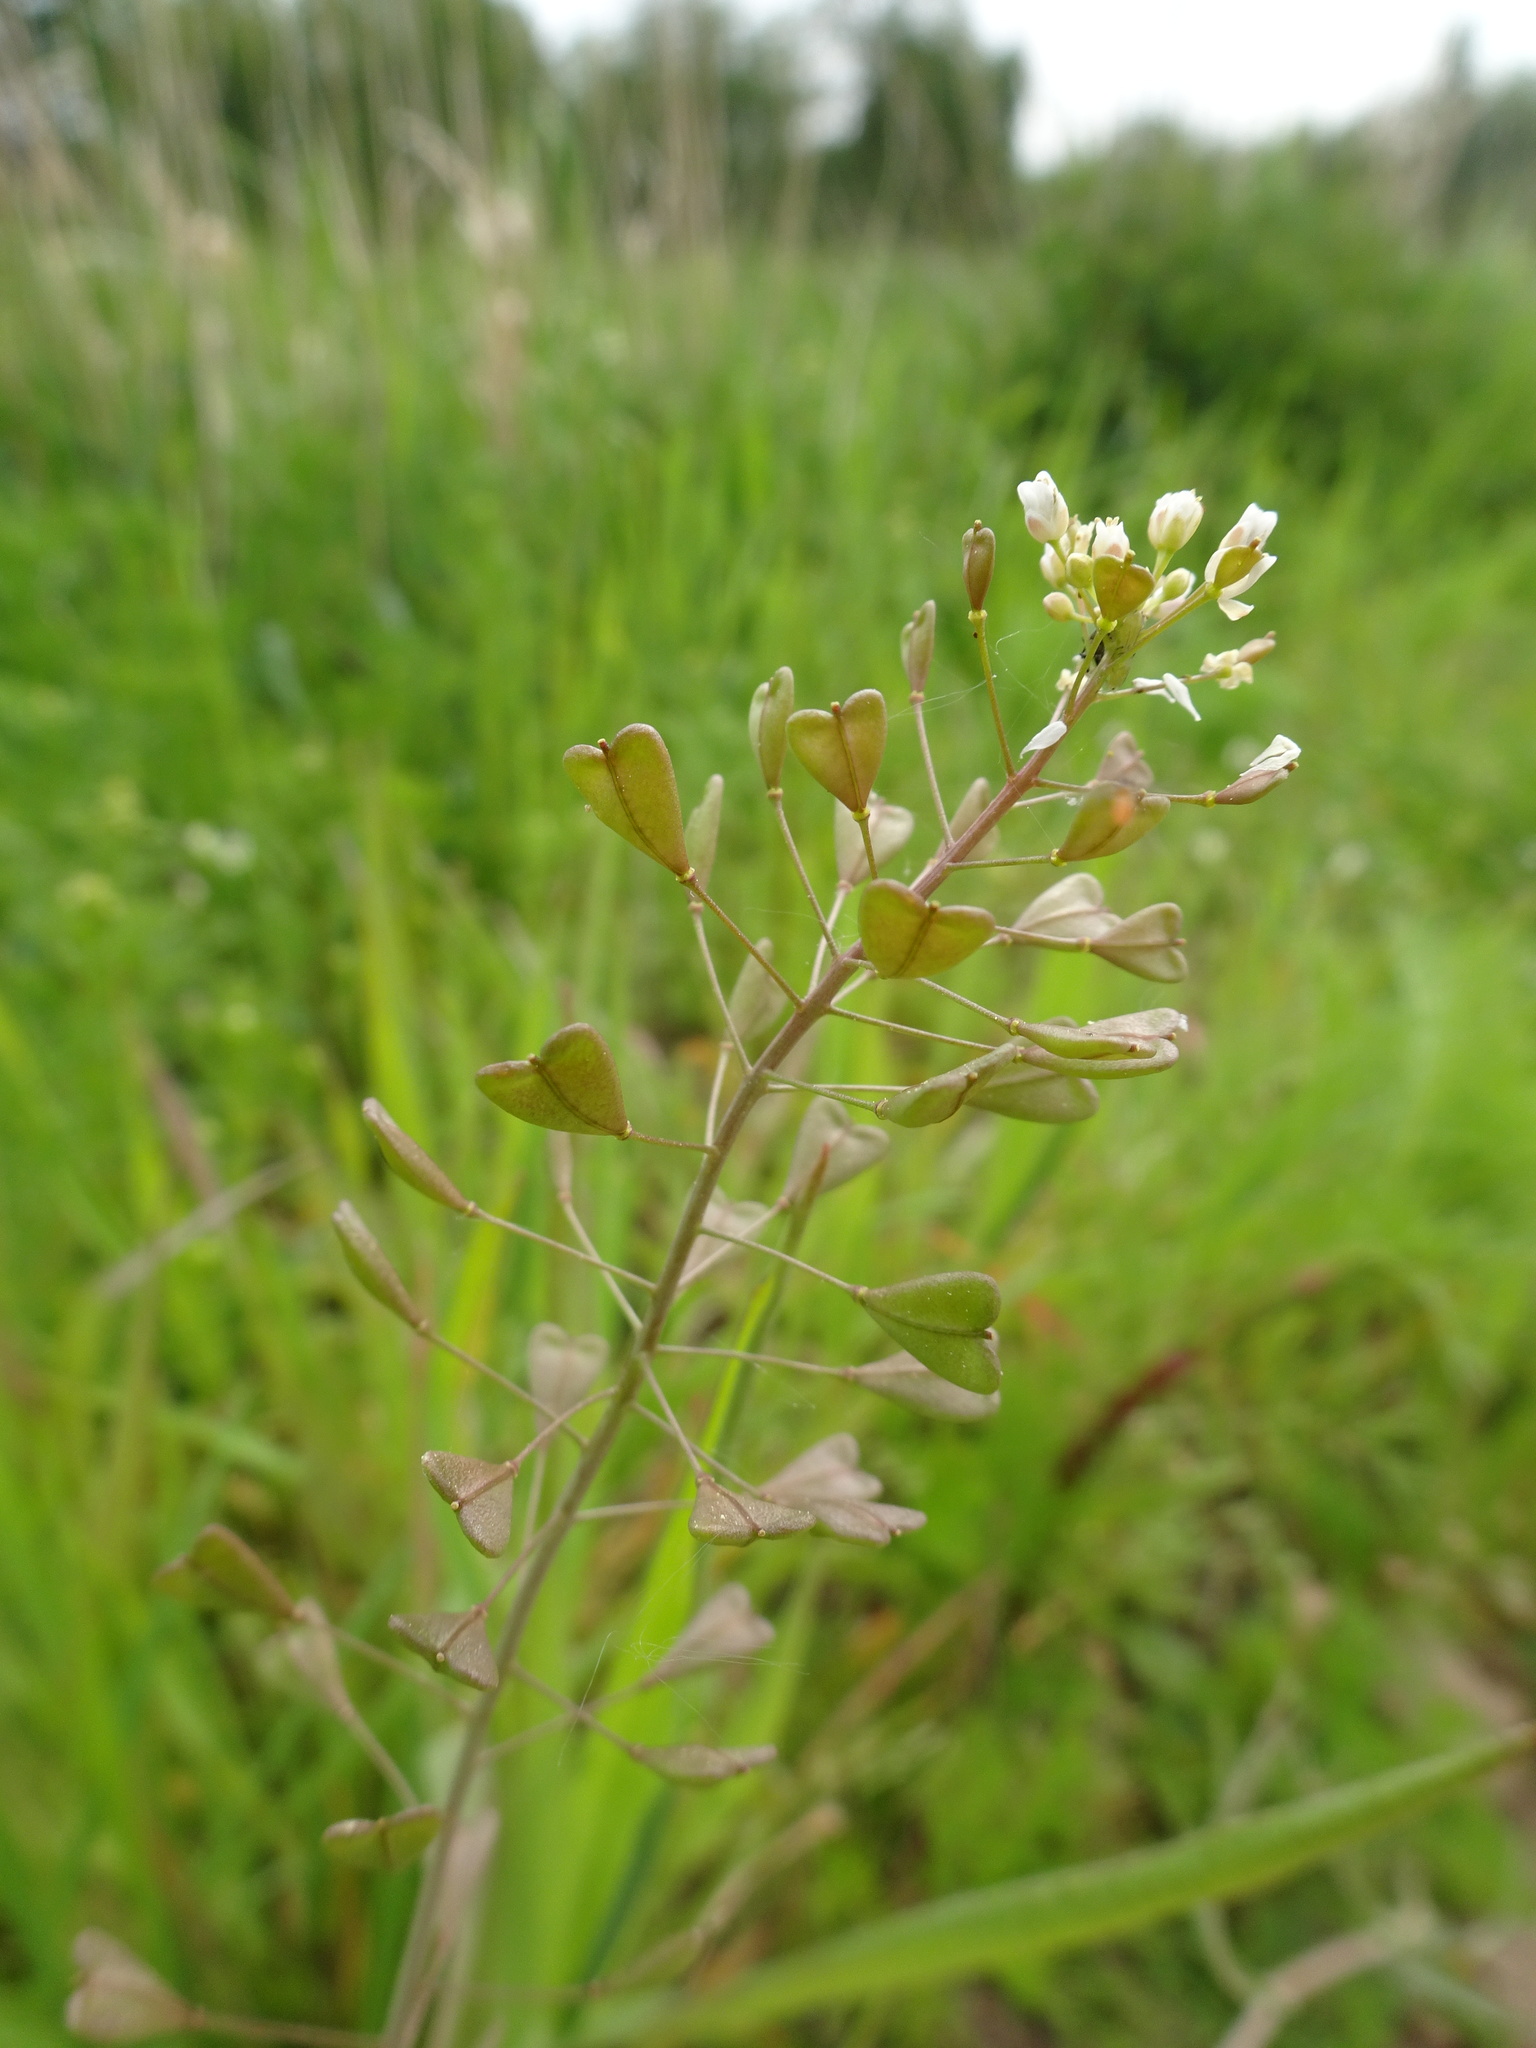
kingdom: Plantae
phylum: Tracheophyta
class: Magnoliopsida
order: Brassicales
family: Brassicaceae
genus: Capsella
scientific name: Capsella bursa-pastoris
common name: Shepherd's purse
